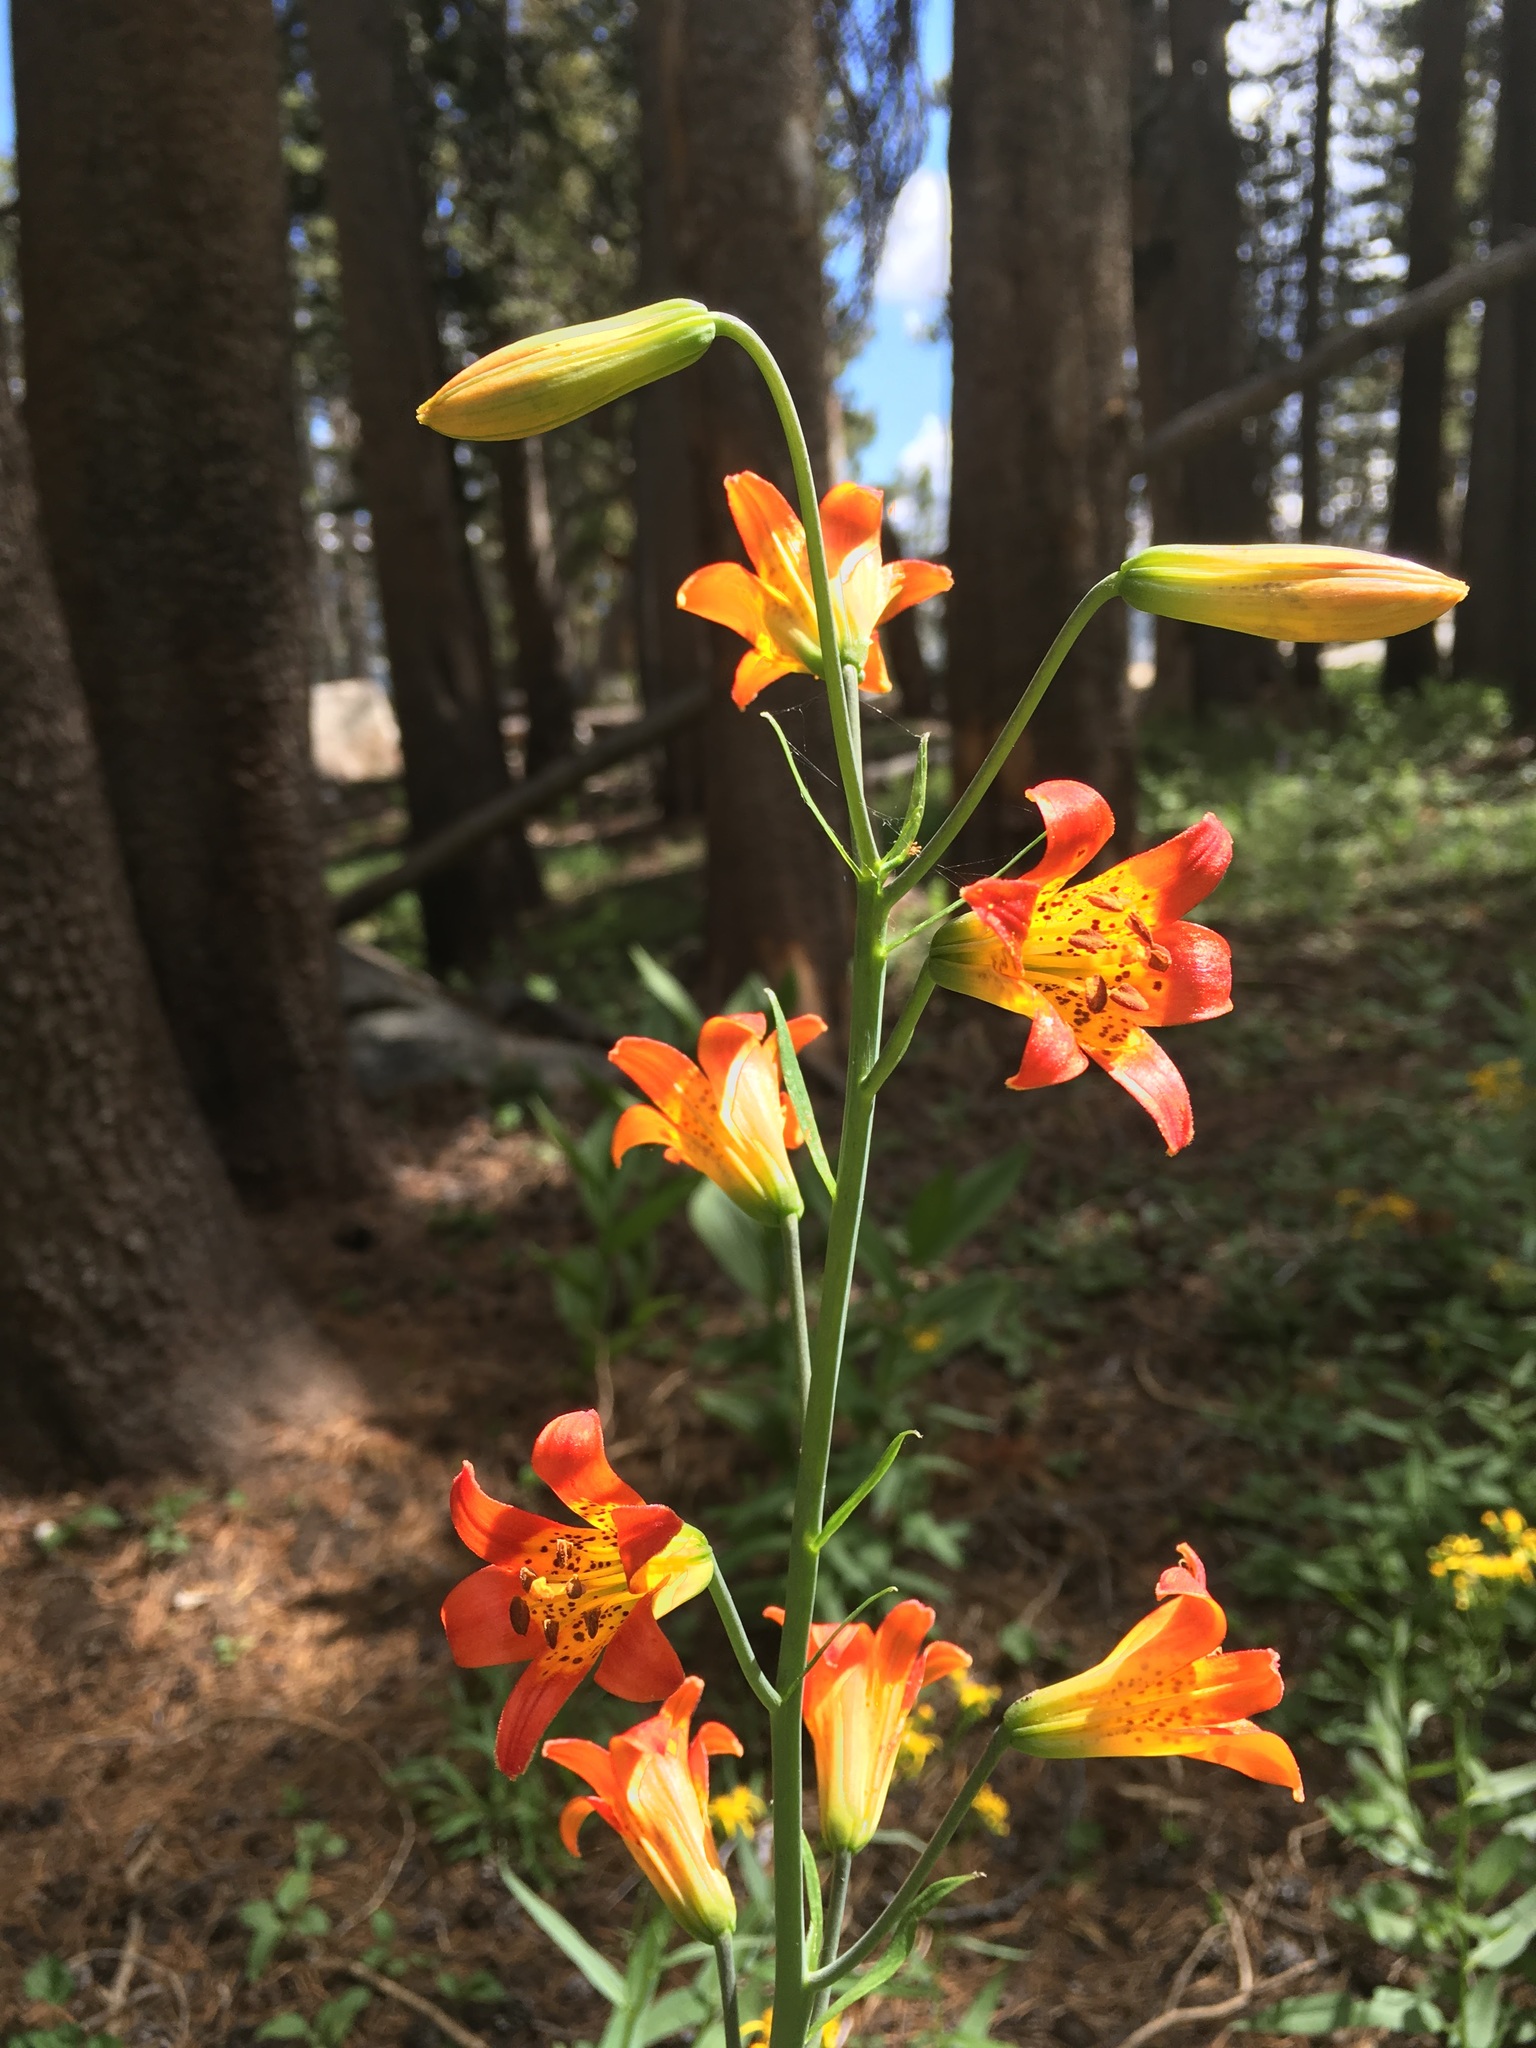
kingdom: Plantae
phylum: Tracheophyta
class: Liliopsida
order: Liliales
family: Liliaceae
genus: Lilium
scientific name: Lilium parvum
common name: Alpine lily
